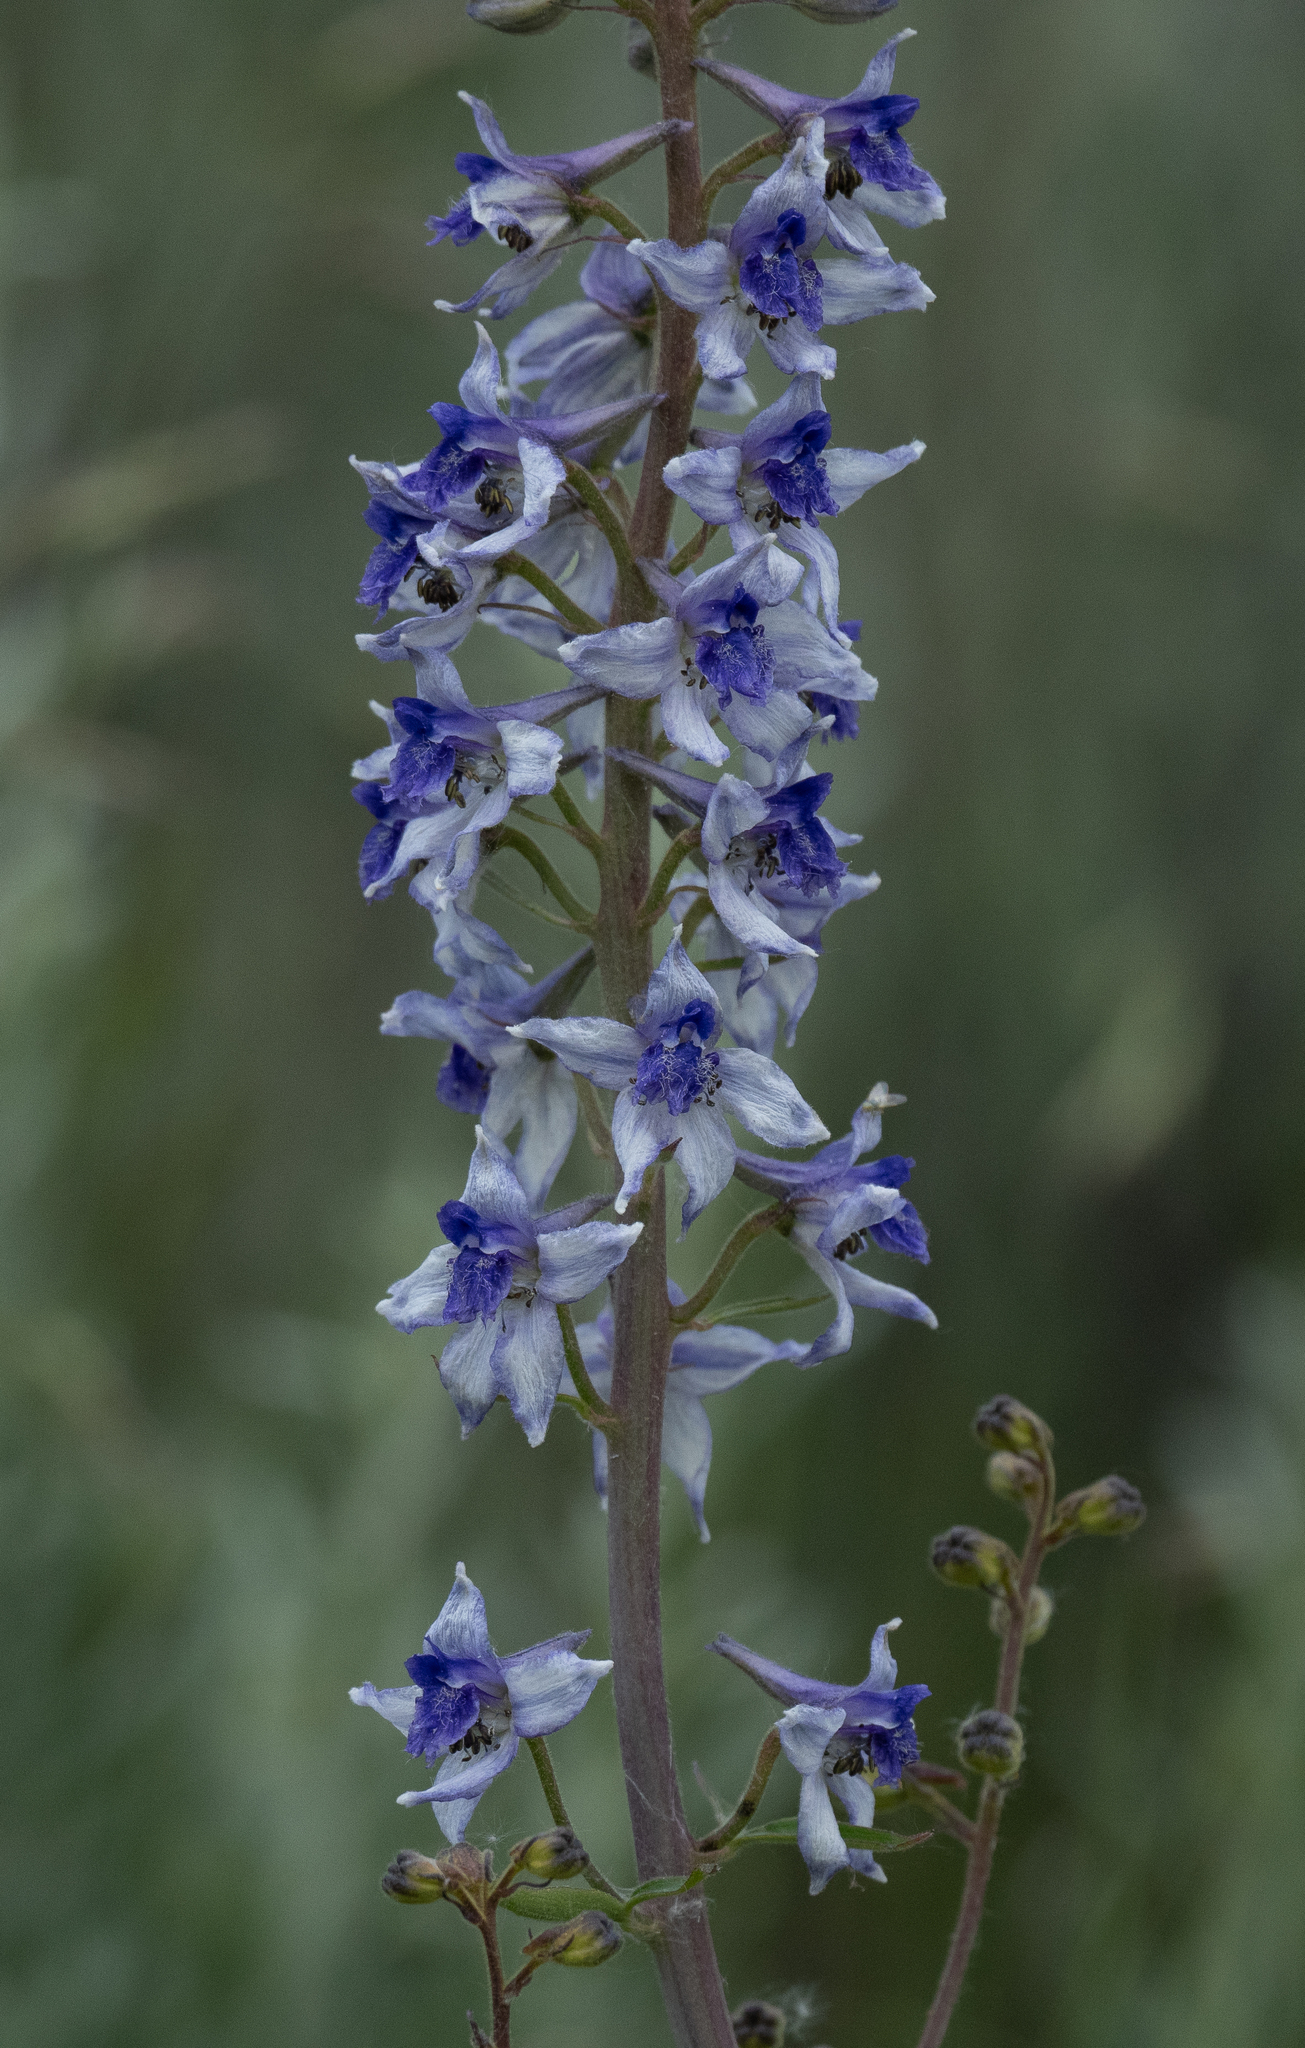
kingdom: Plantae
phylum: Tracheophyta
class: Magnoliopsida
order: Ranunculales
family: Ranunculaceae
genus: Delphinium
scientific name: Delphinium occidentale
